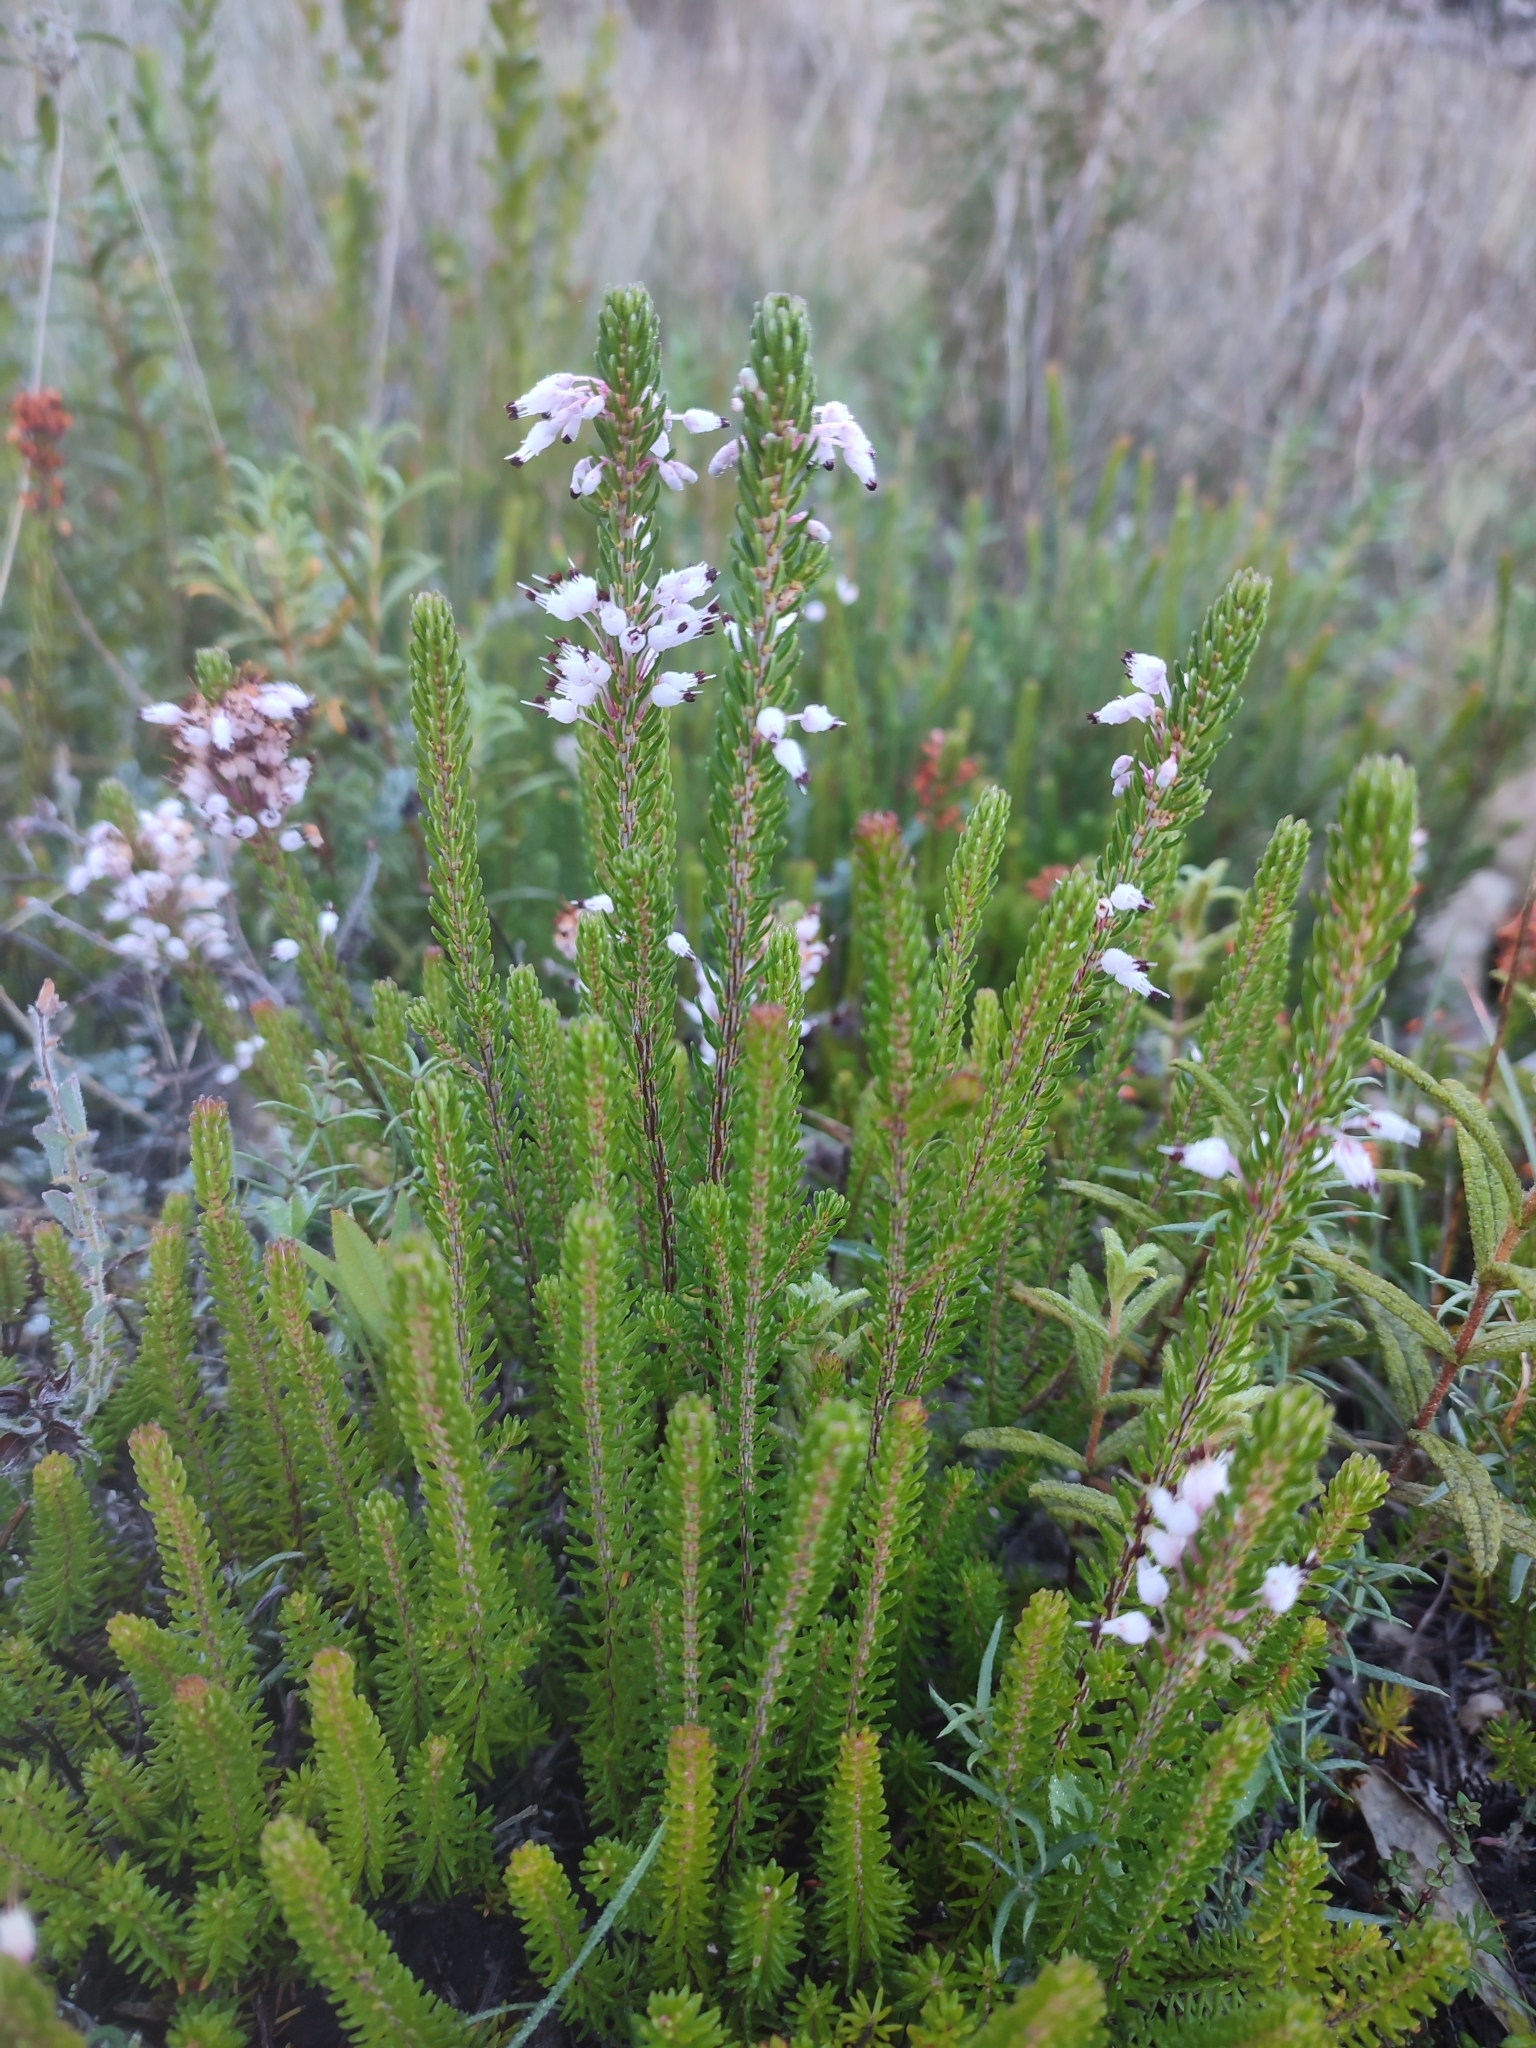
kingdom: Plantae
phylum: Tracheophyta
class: Magnoliopsida
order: Ericales
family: Ericaceae
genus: Erica
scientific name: Erica multiflora
